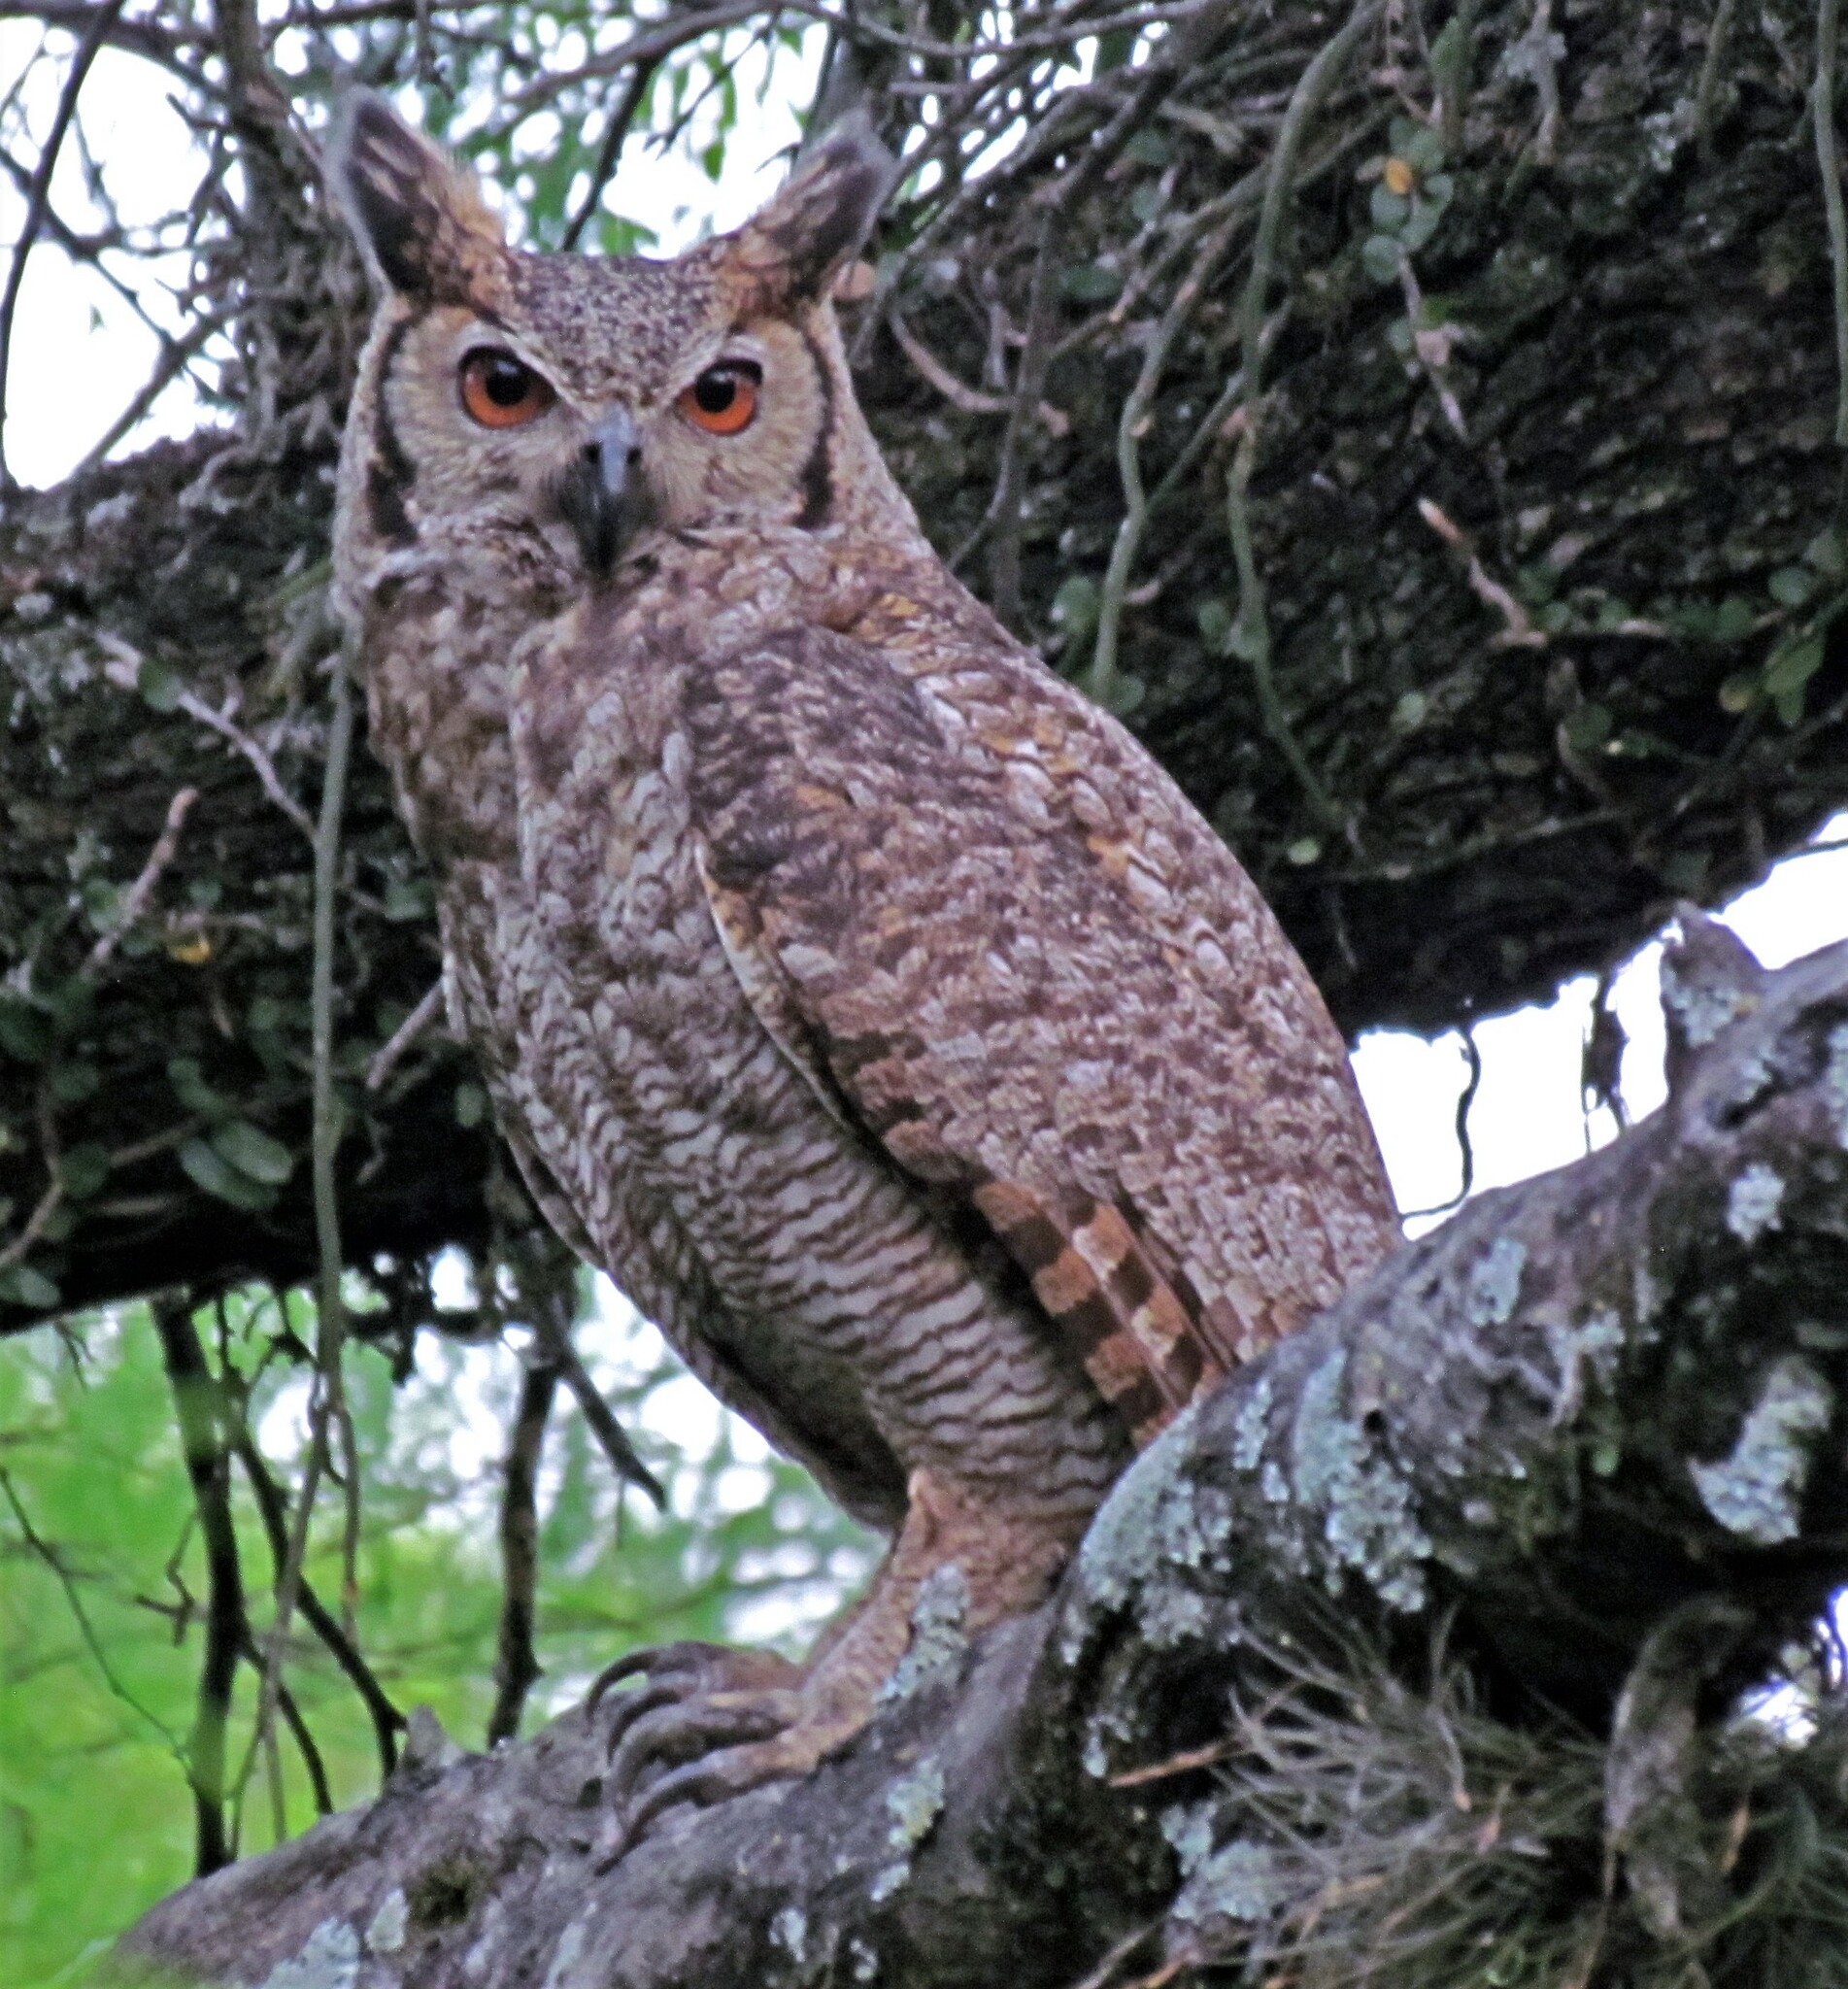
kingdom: Animalia
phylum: Chordata
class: Aves
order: Strigiformes
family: Strigidae
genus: Bubo
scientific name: Bubo virginianus
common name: Great horned owl
